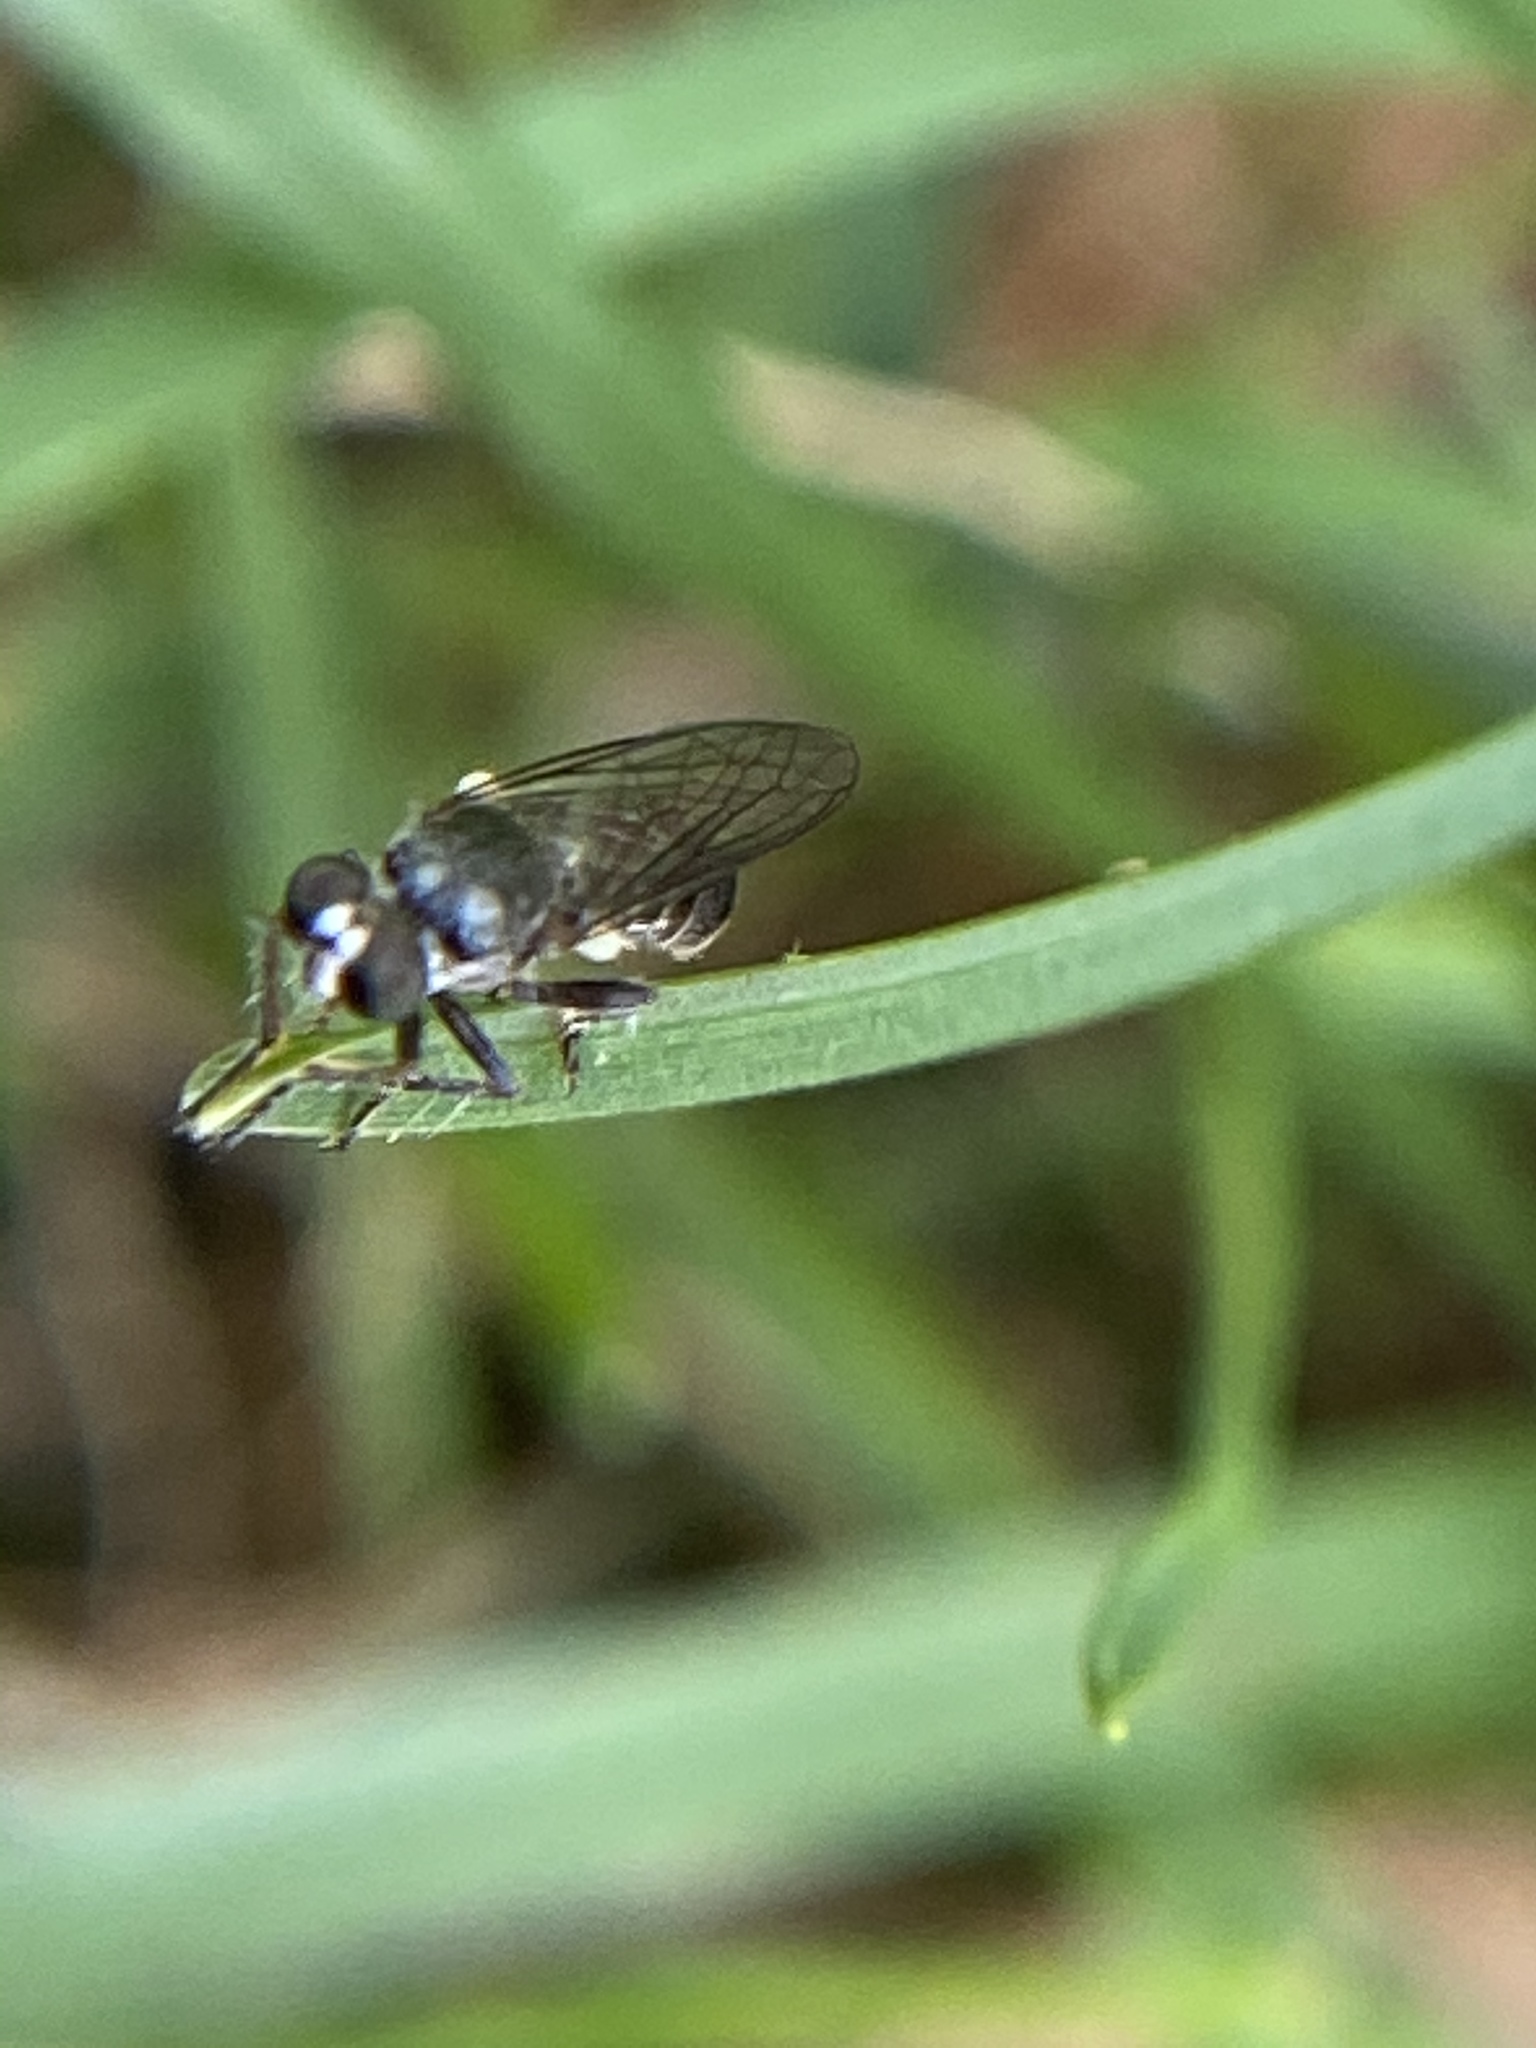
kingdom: Animalia
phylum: Arthropoda
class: Insecta
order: Diptera
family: Asilidae
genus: Atomosia
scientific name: Atomosia puella
